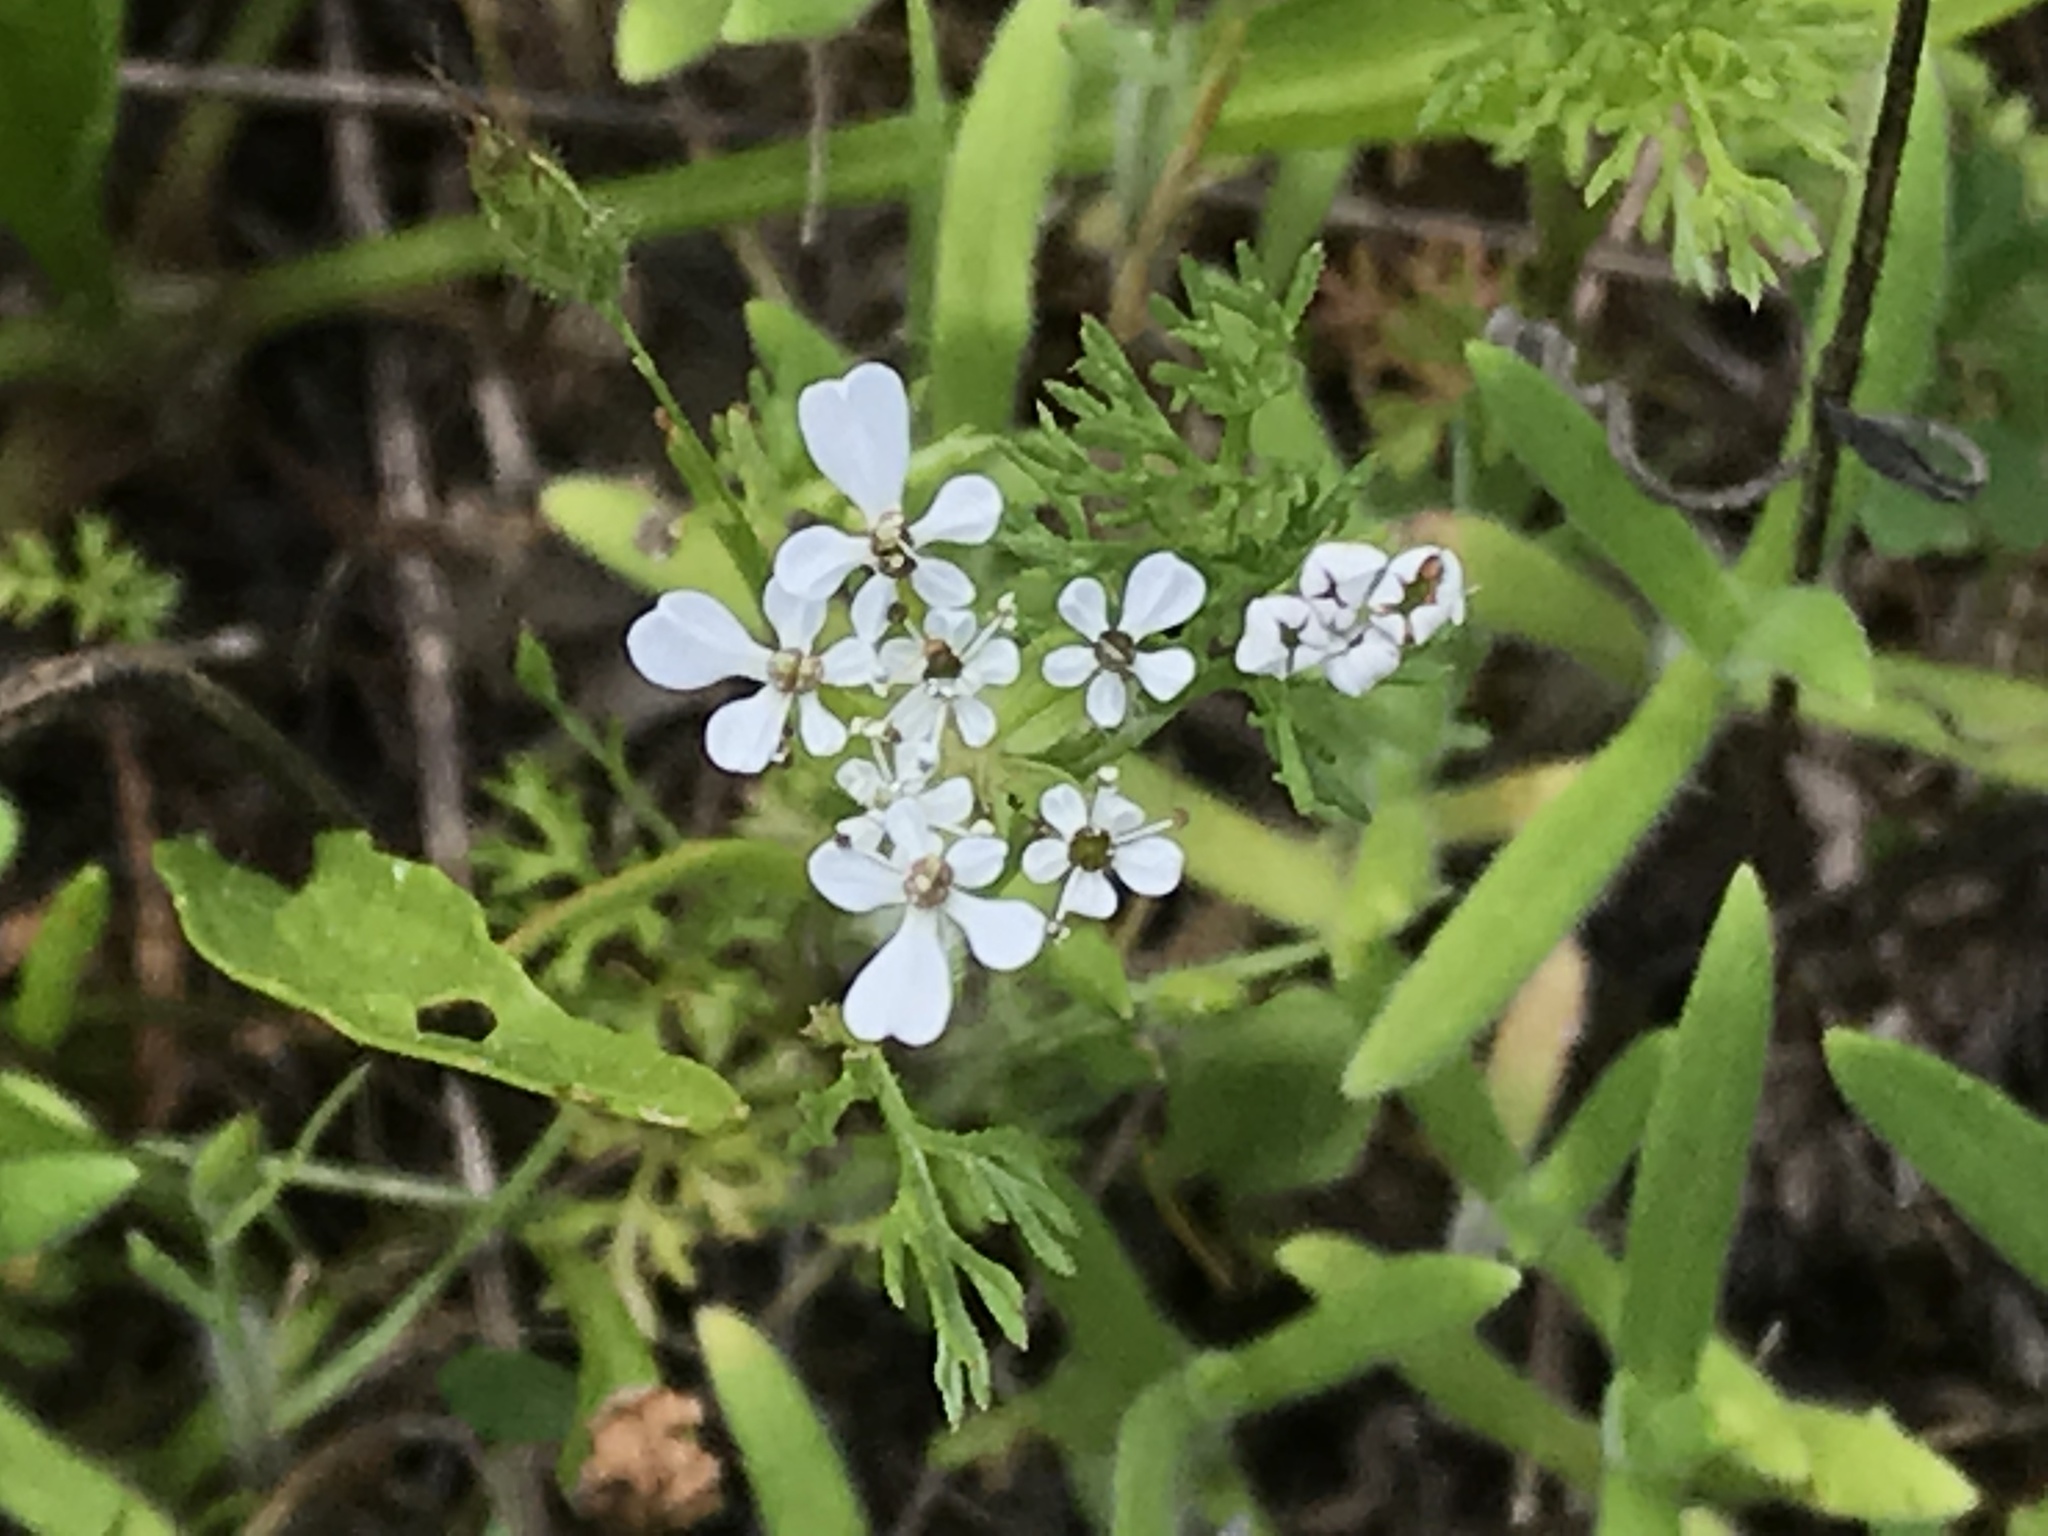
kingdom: Plantae
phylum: Tracheophyta
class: Magnoliopsida
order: Apiales
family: Apiaceae
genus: Scandix
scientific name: Scandix pecten-veneris
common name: Shepherd's-needle
